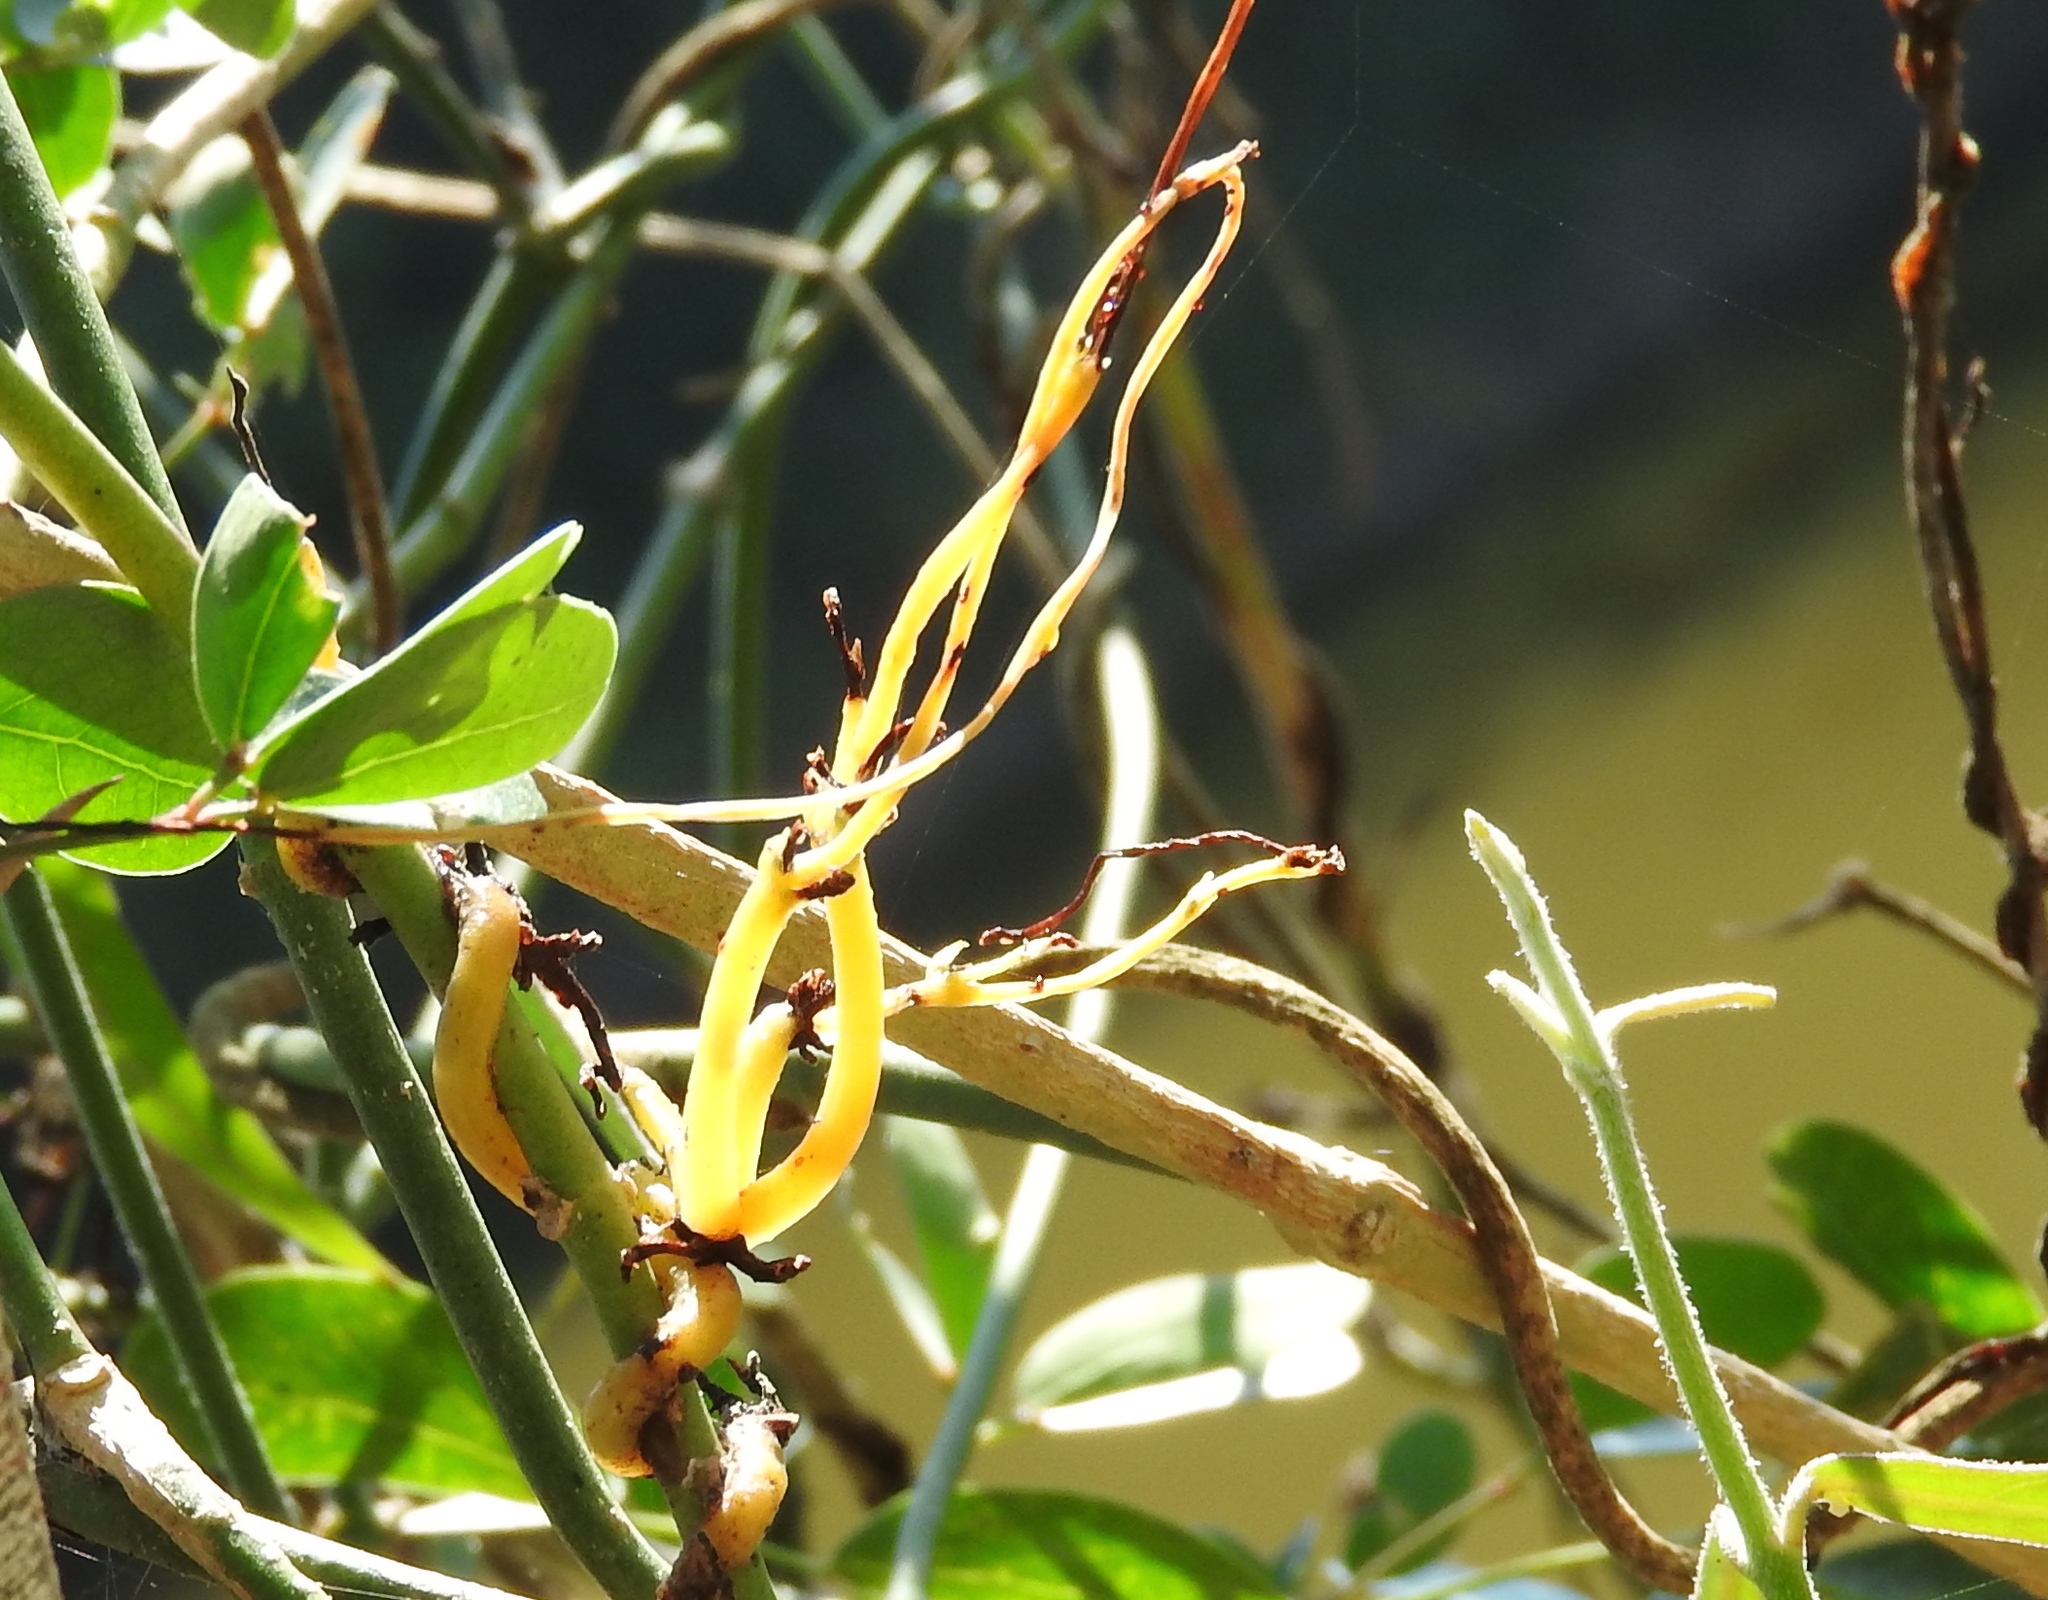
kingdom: Plantae
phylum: Tracheophyta
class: Magnoliopsida
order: Solanales
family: Convolvulaceae
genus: Cuscuta
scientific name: Cuscuta
